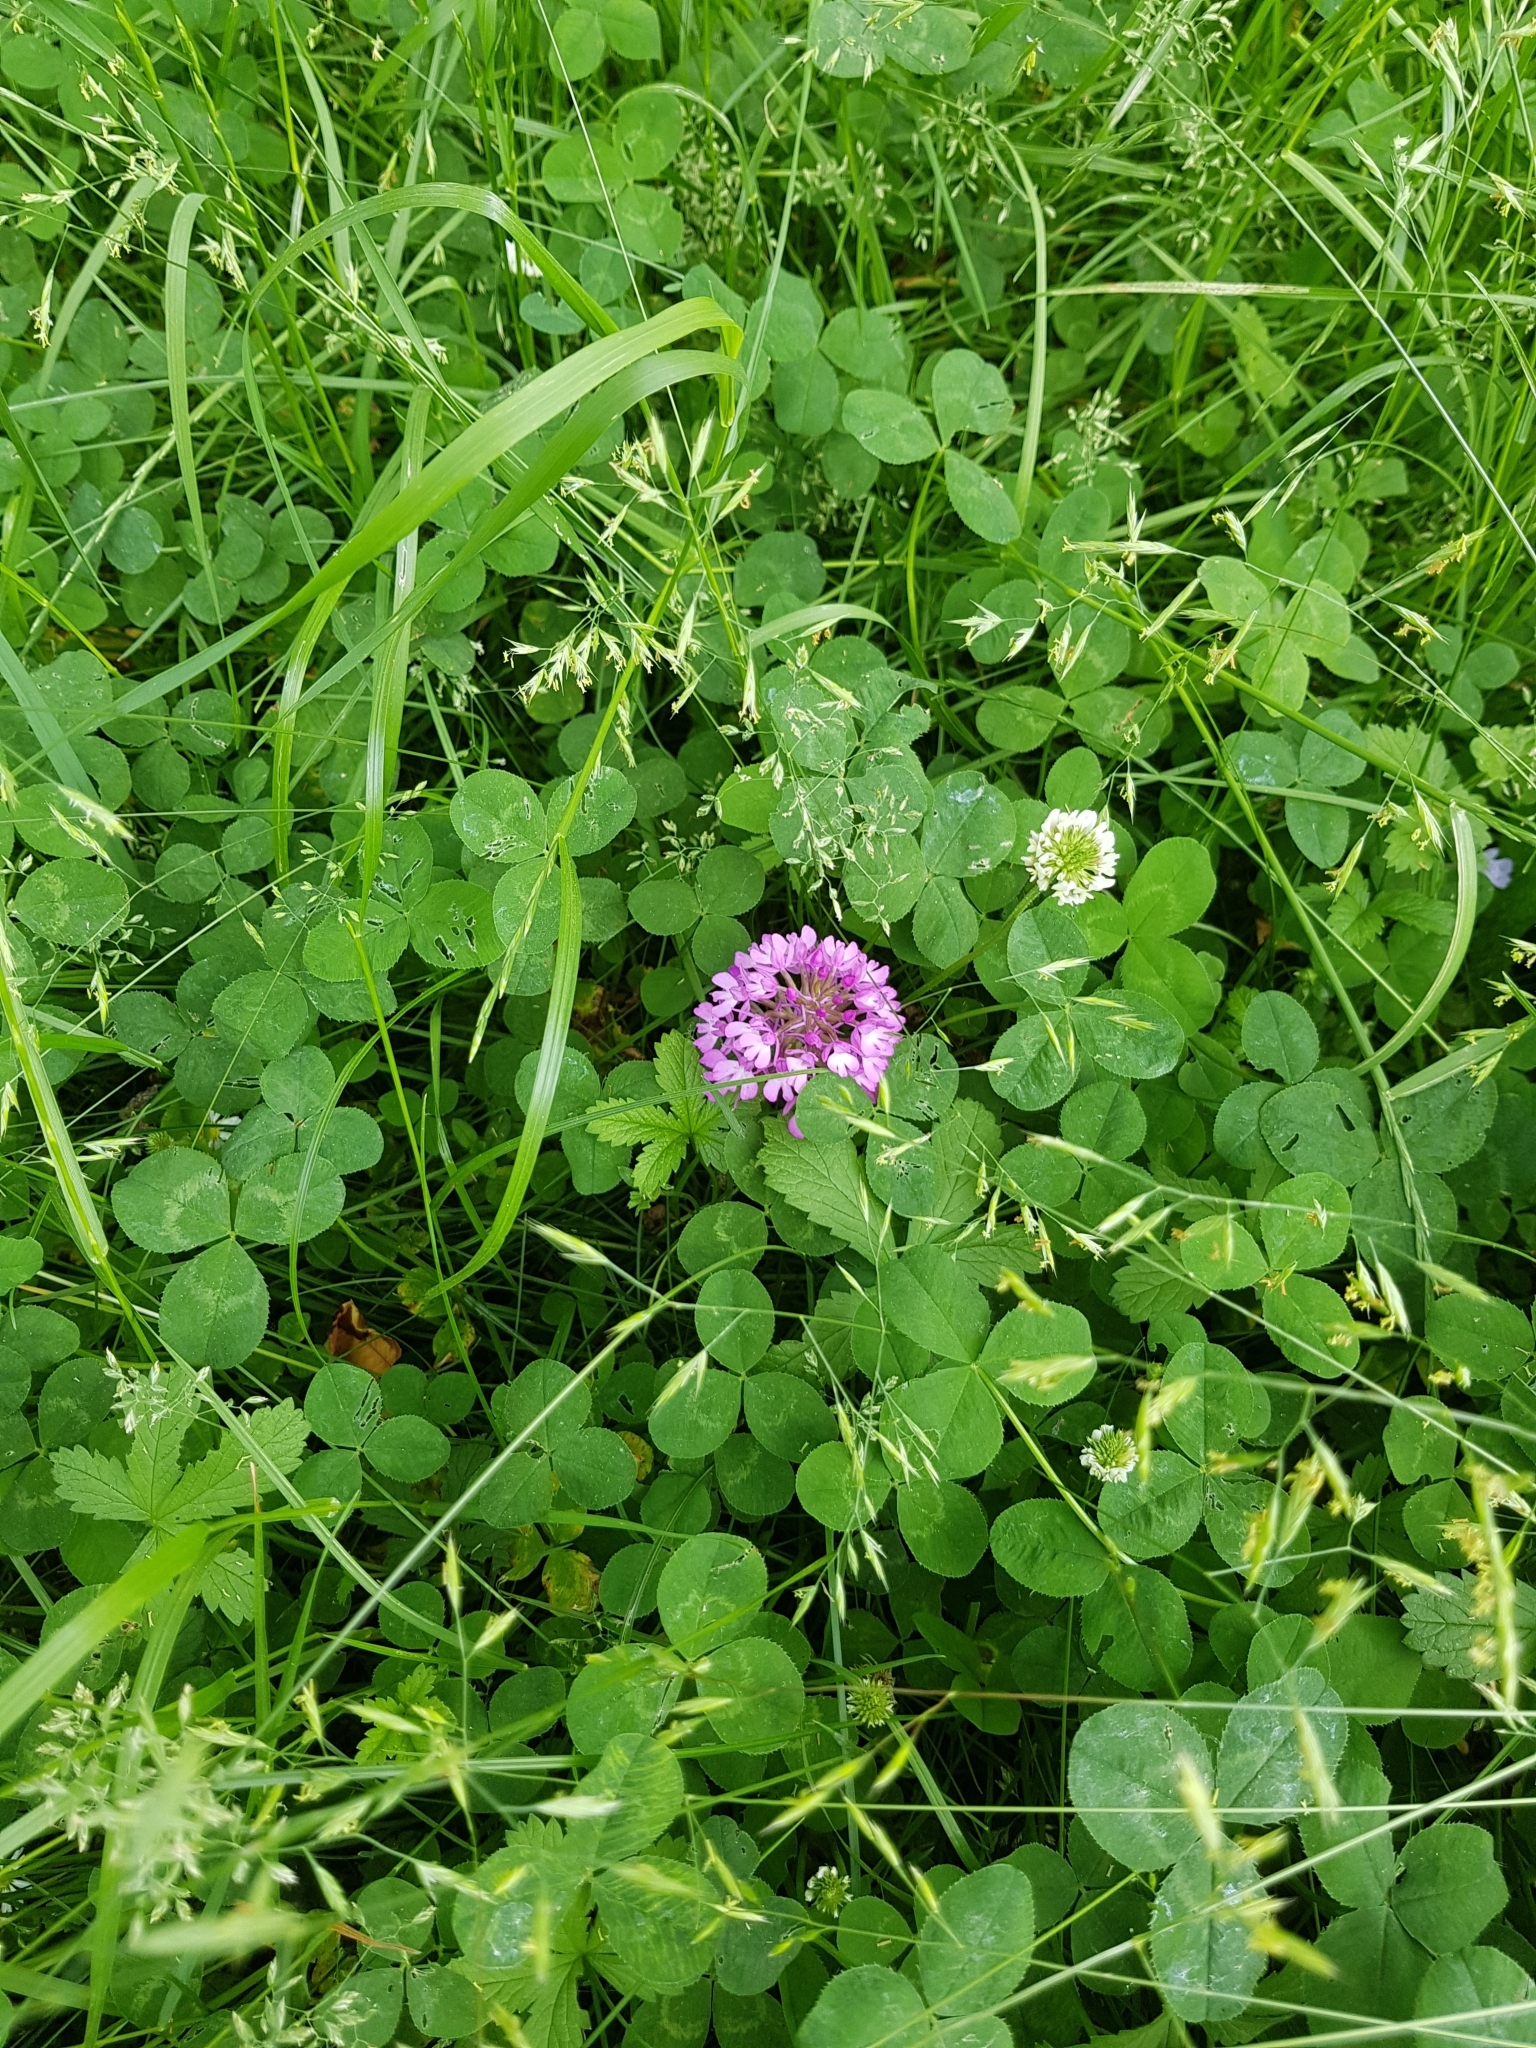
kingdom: Plantae
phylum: Tracheophyta
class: Liliopsida
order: Asparagales
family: Orchidaceae
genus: Anacamptis
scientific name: Anacamptis pyramidalis
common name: Pyramidal orchid
